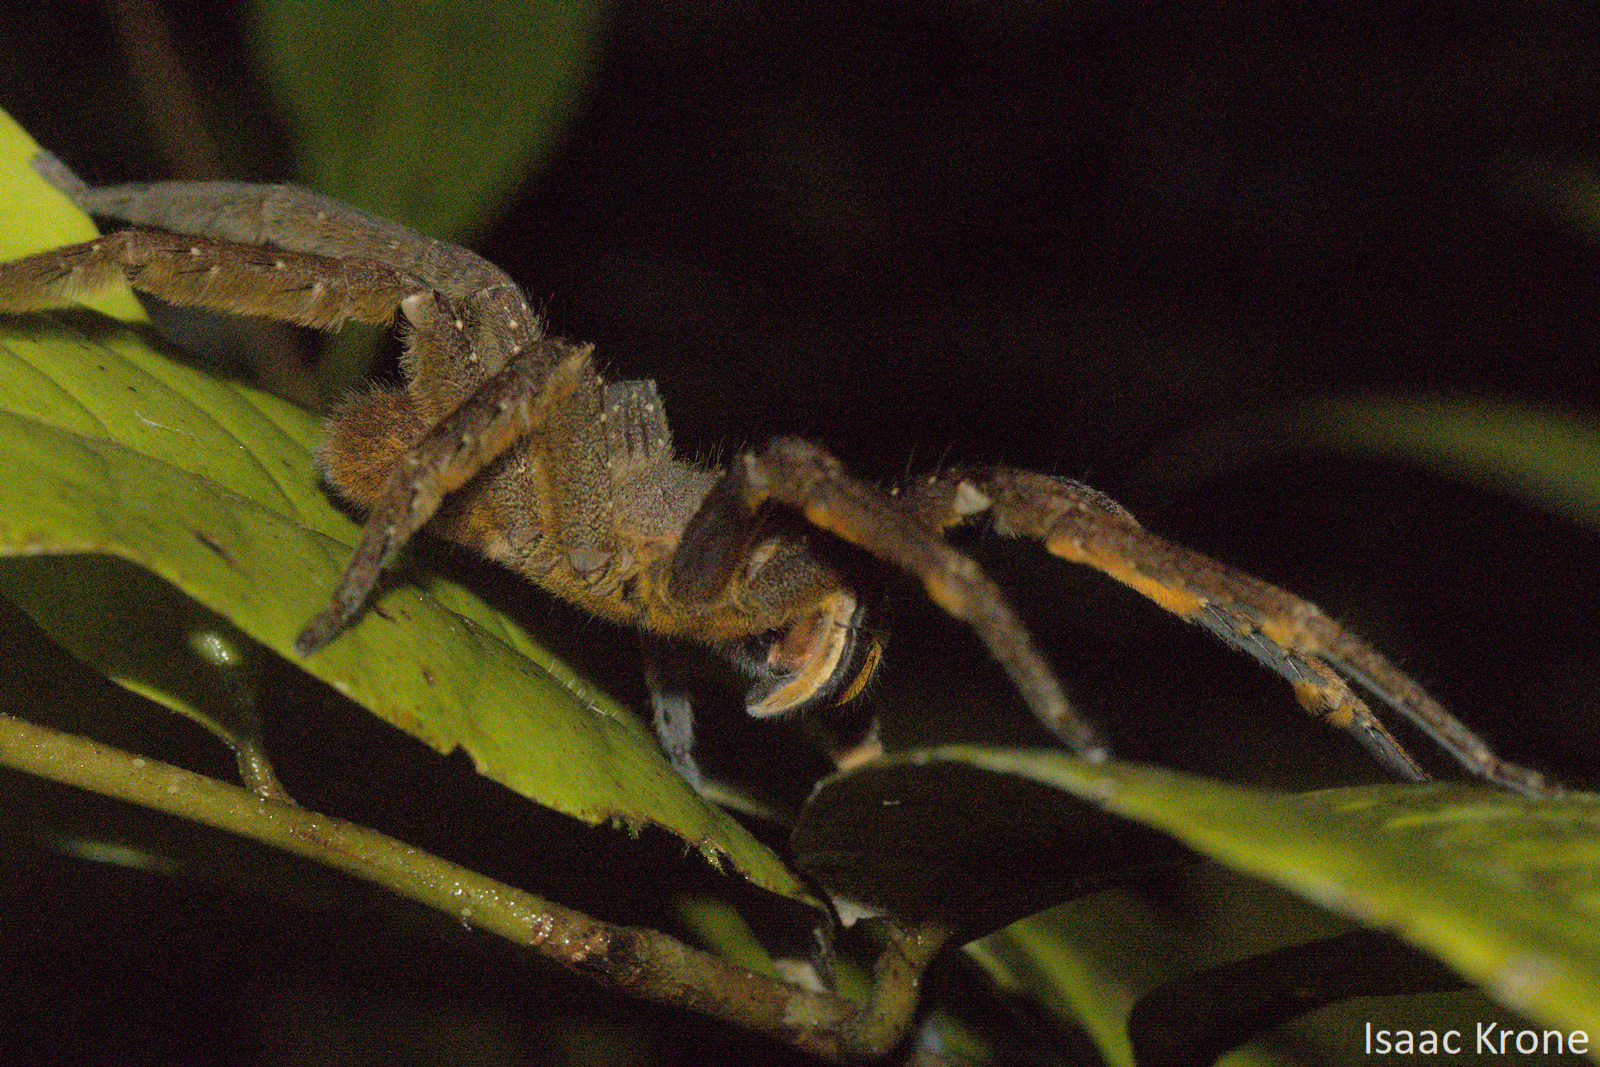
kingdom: Animalia
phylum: Arthropoda
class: Arachnida
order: Araneae
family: Ctenidae
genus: Phoneutria
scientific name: Phoneutria fera
